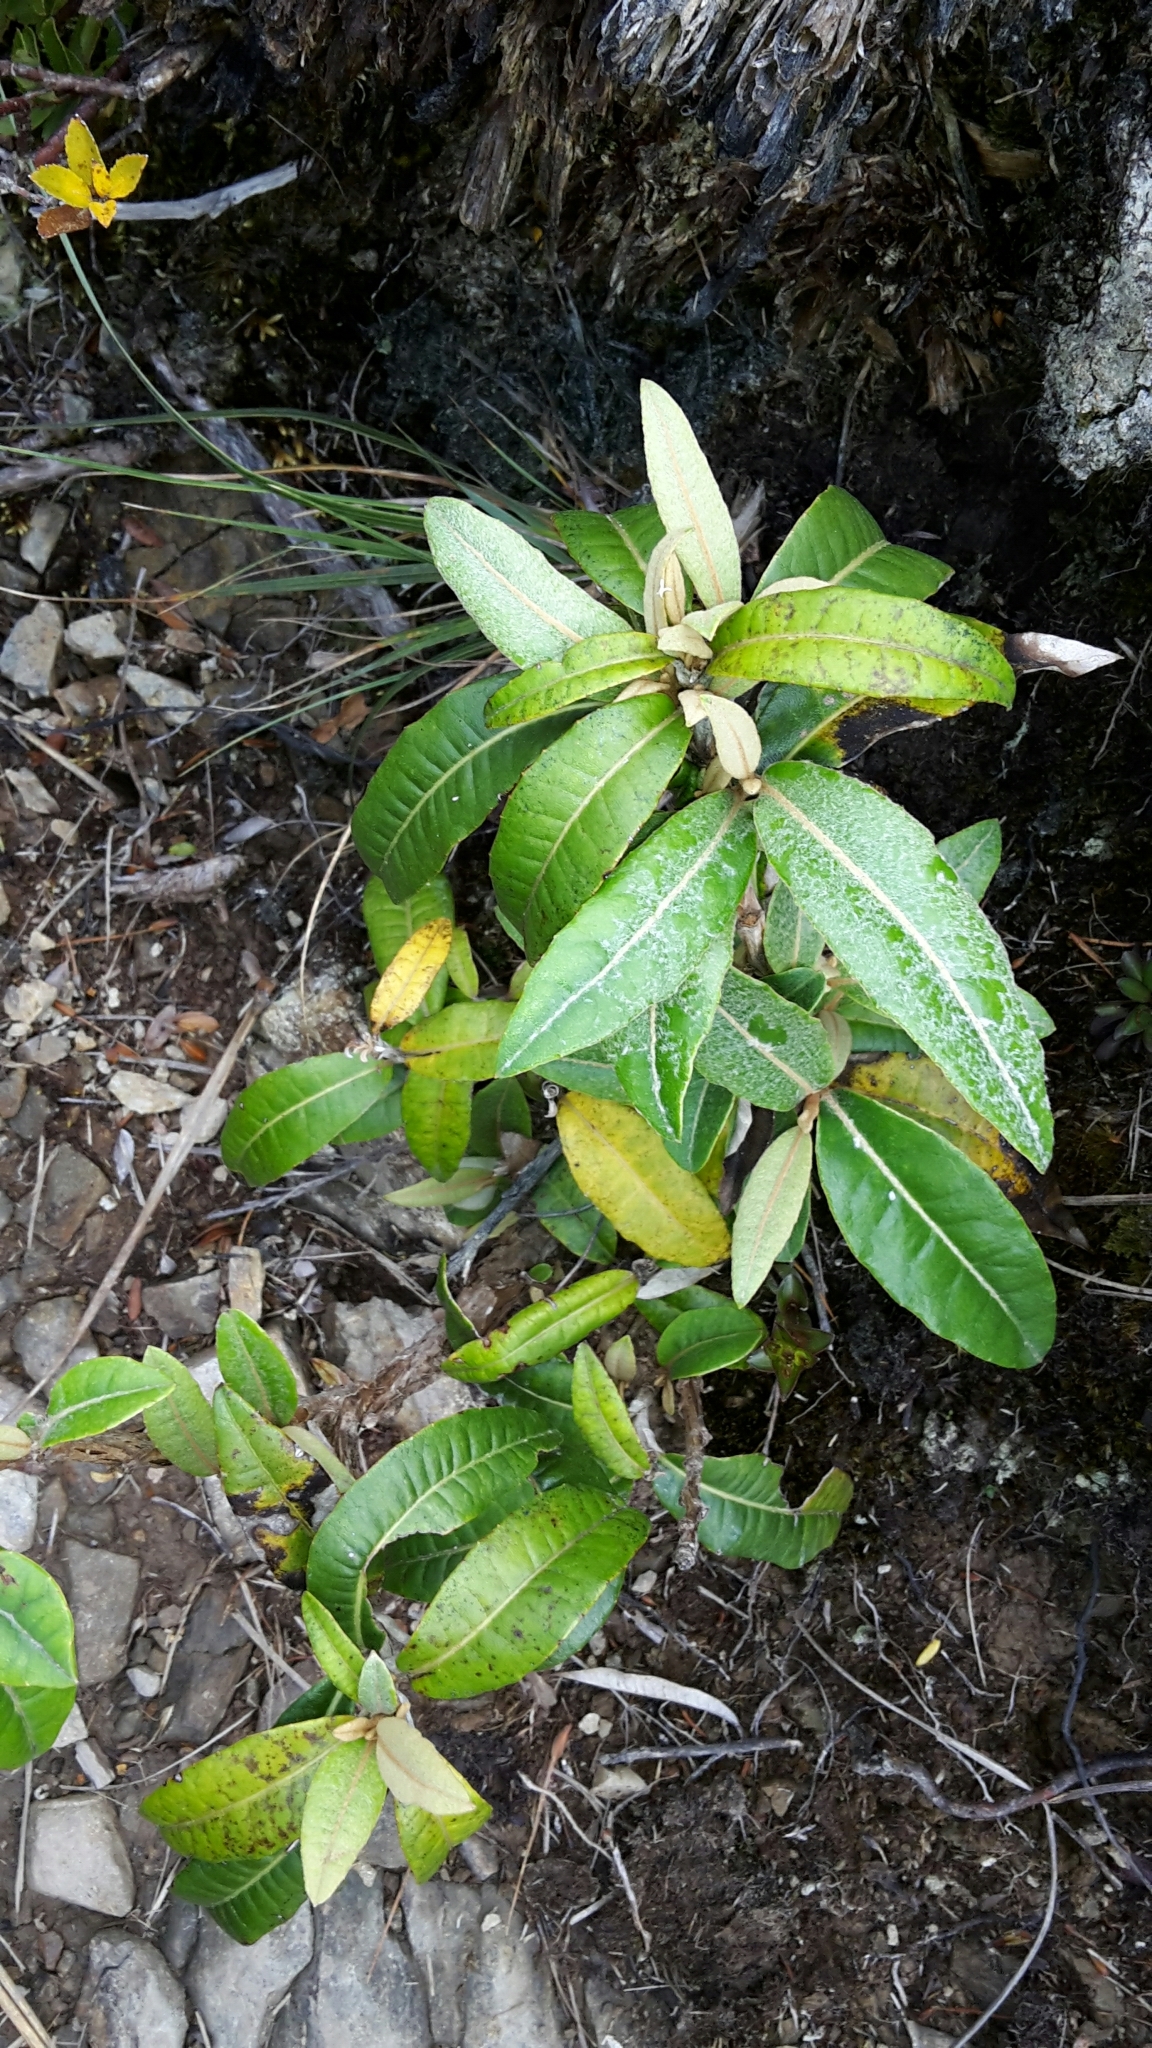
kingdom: Plantae
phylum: Tracheophyta
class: Magnoliopsida
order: Asterales
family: Asteraceae
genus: Olearia
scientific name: Olearia
